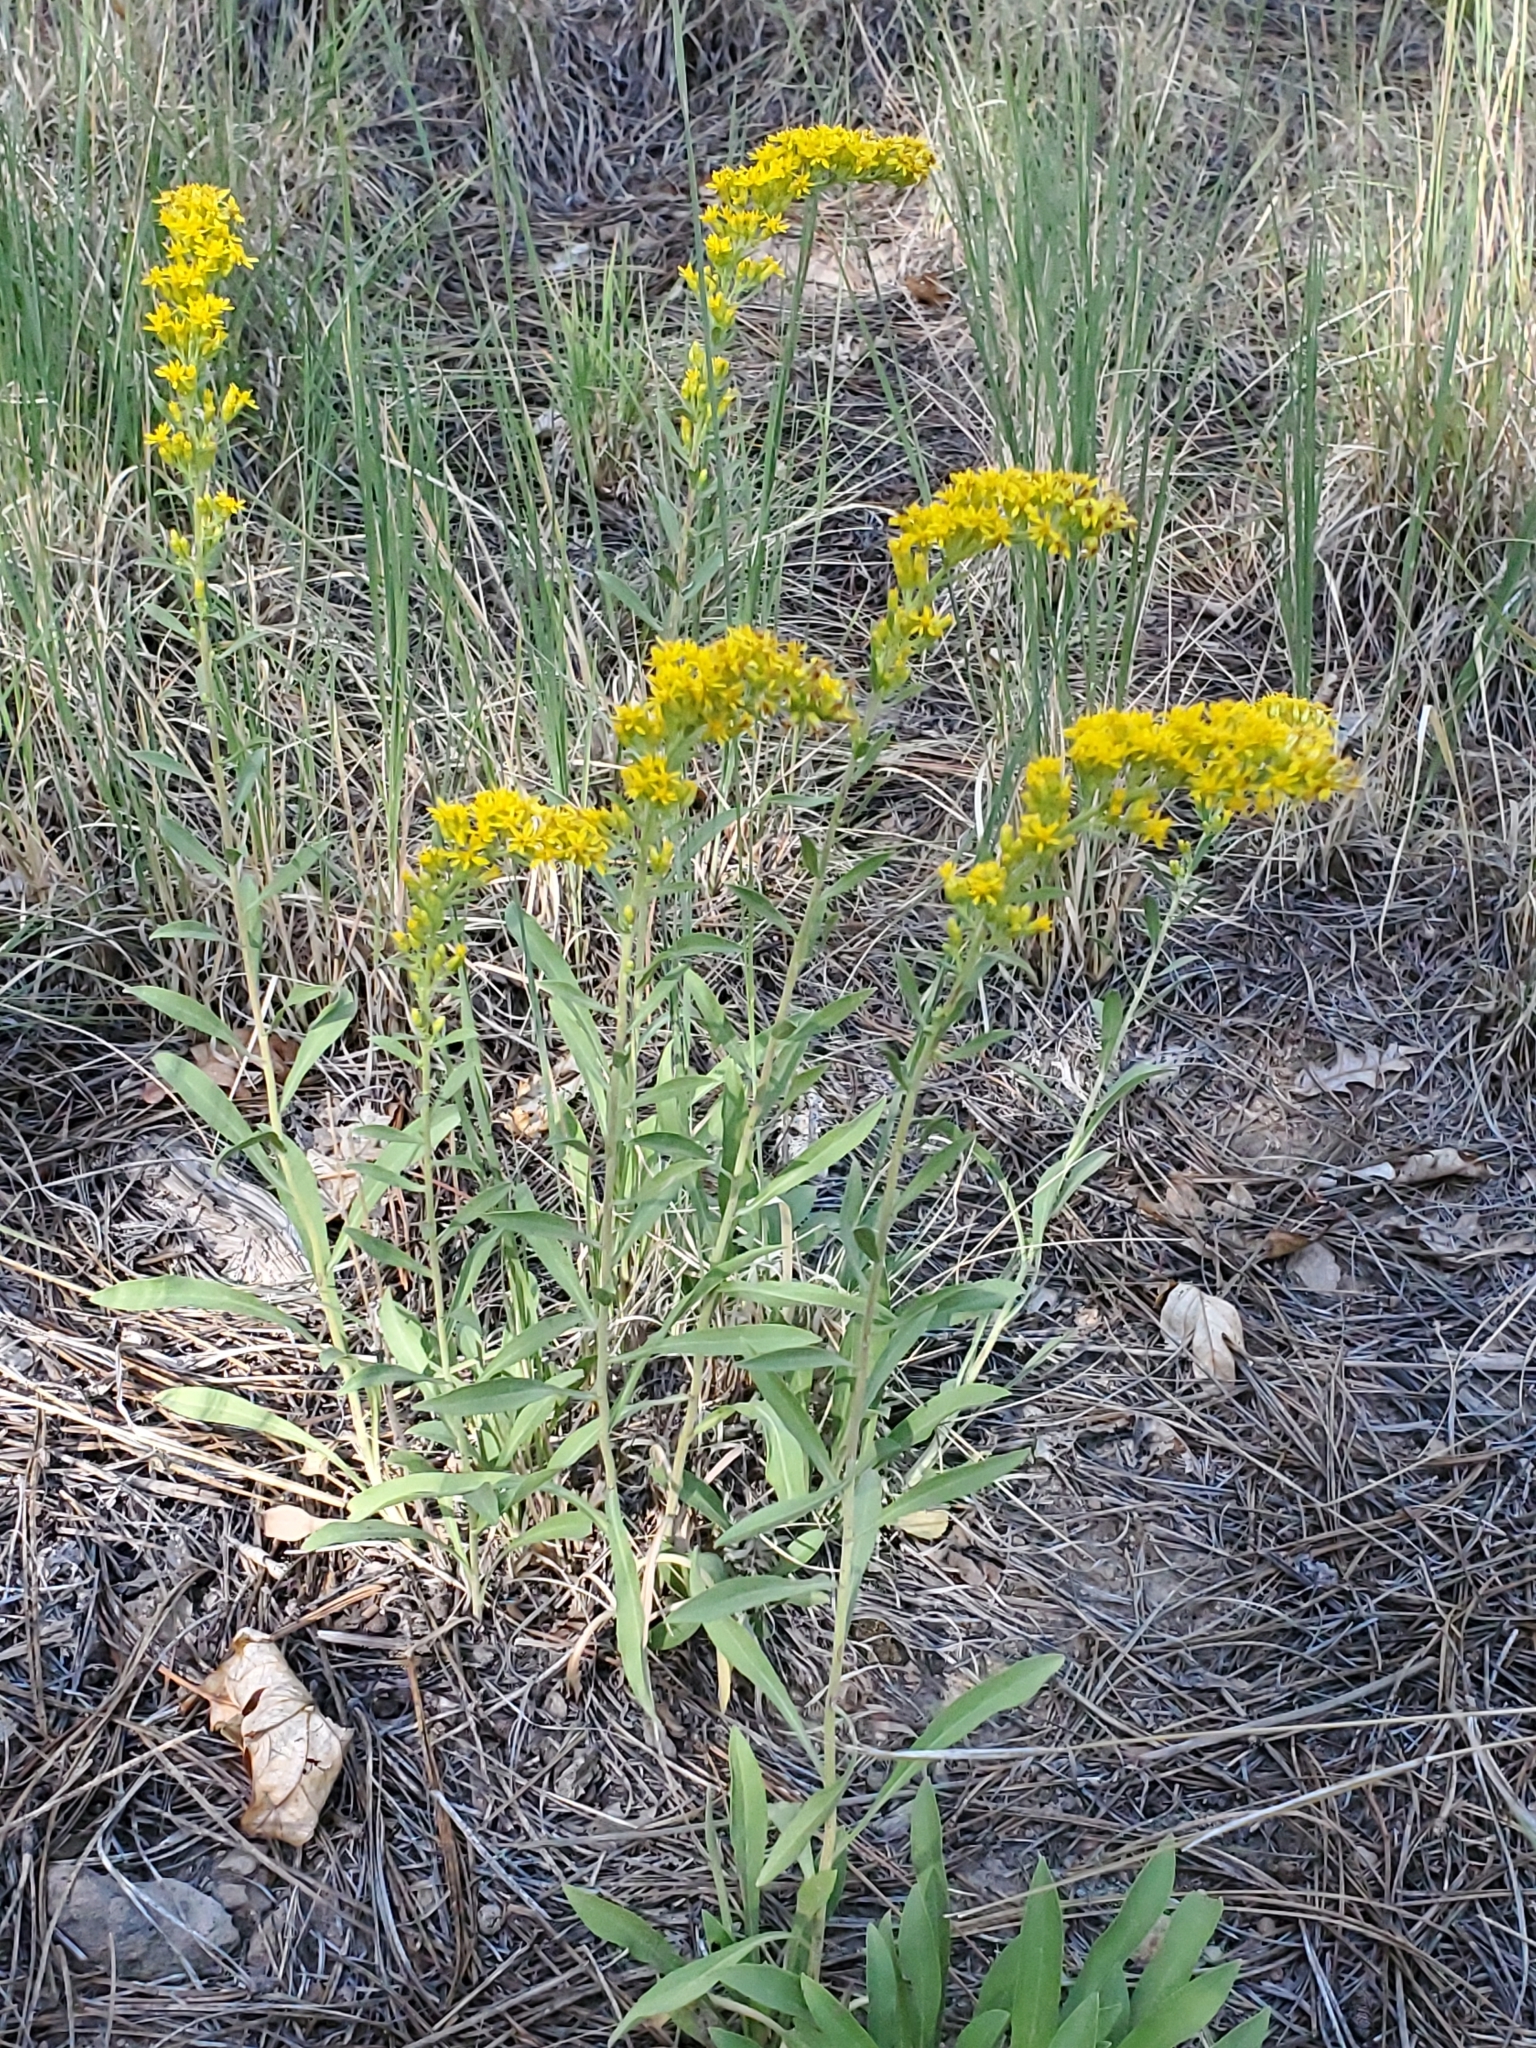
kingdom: Plantae
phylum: Tracheophyta
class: Magnoliopsida
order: Asterales
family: Asteraceae
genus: Solidago
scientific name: Solidago nemoralis
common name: Grey goldenrod
